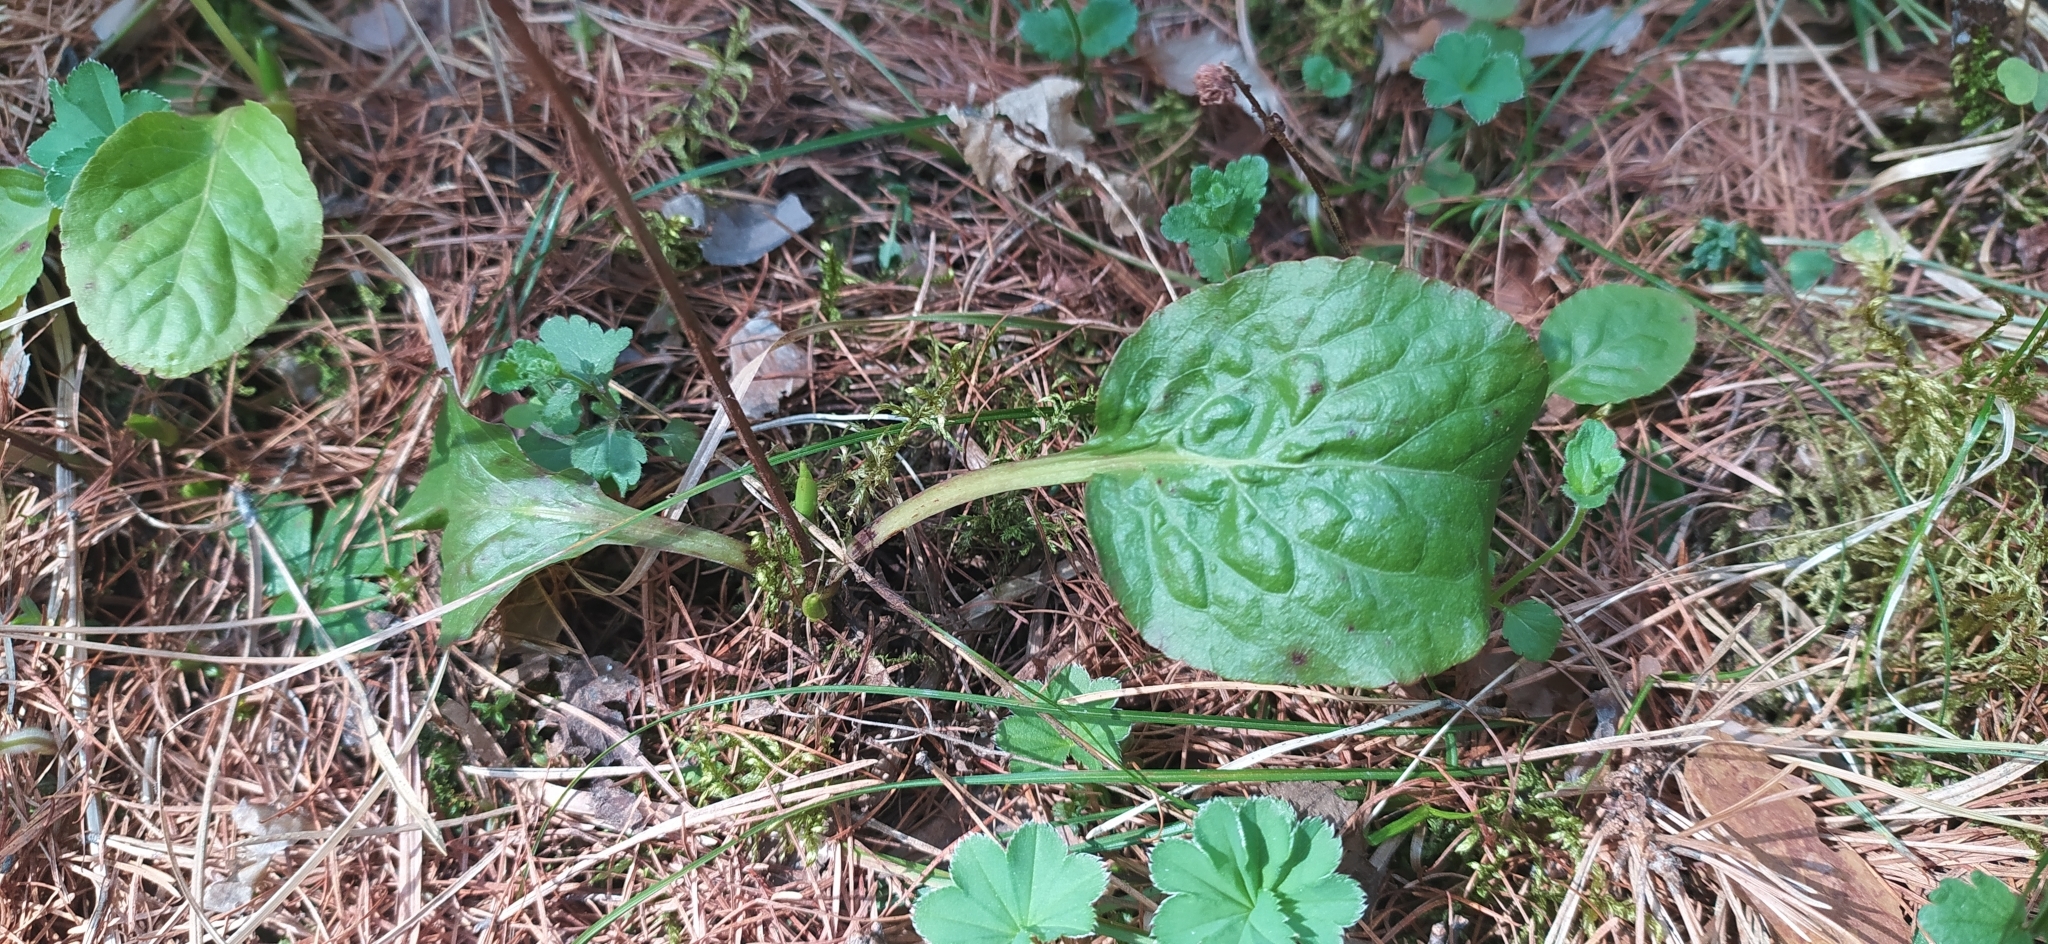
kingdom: Plantae
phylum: Tracheophyta
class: Magnoliopsida
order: Ericales
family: Ericaceae
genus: Pyrola
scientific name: Pyrola minor
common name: Common wintergreen
